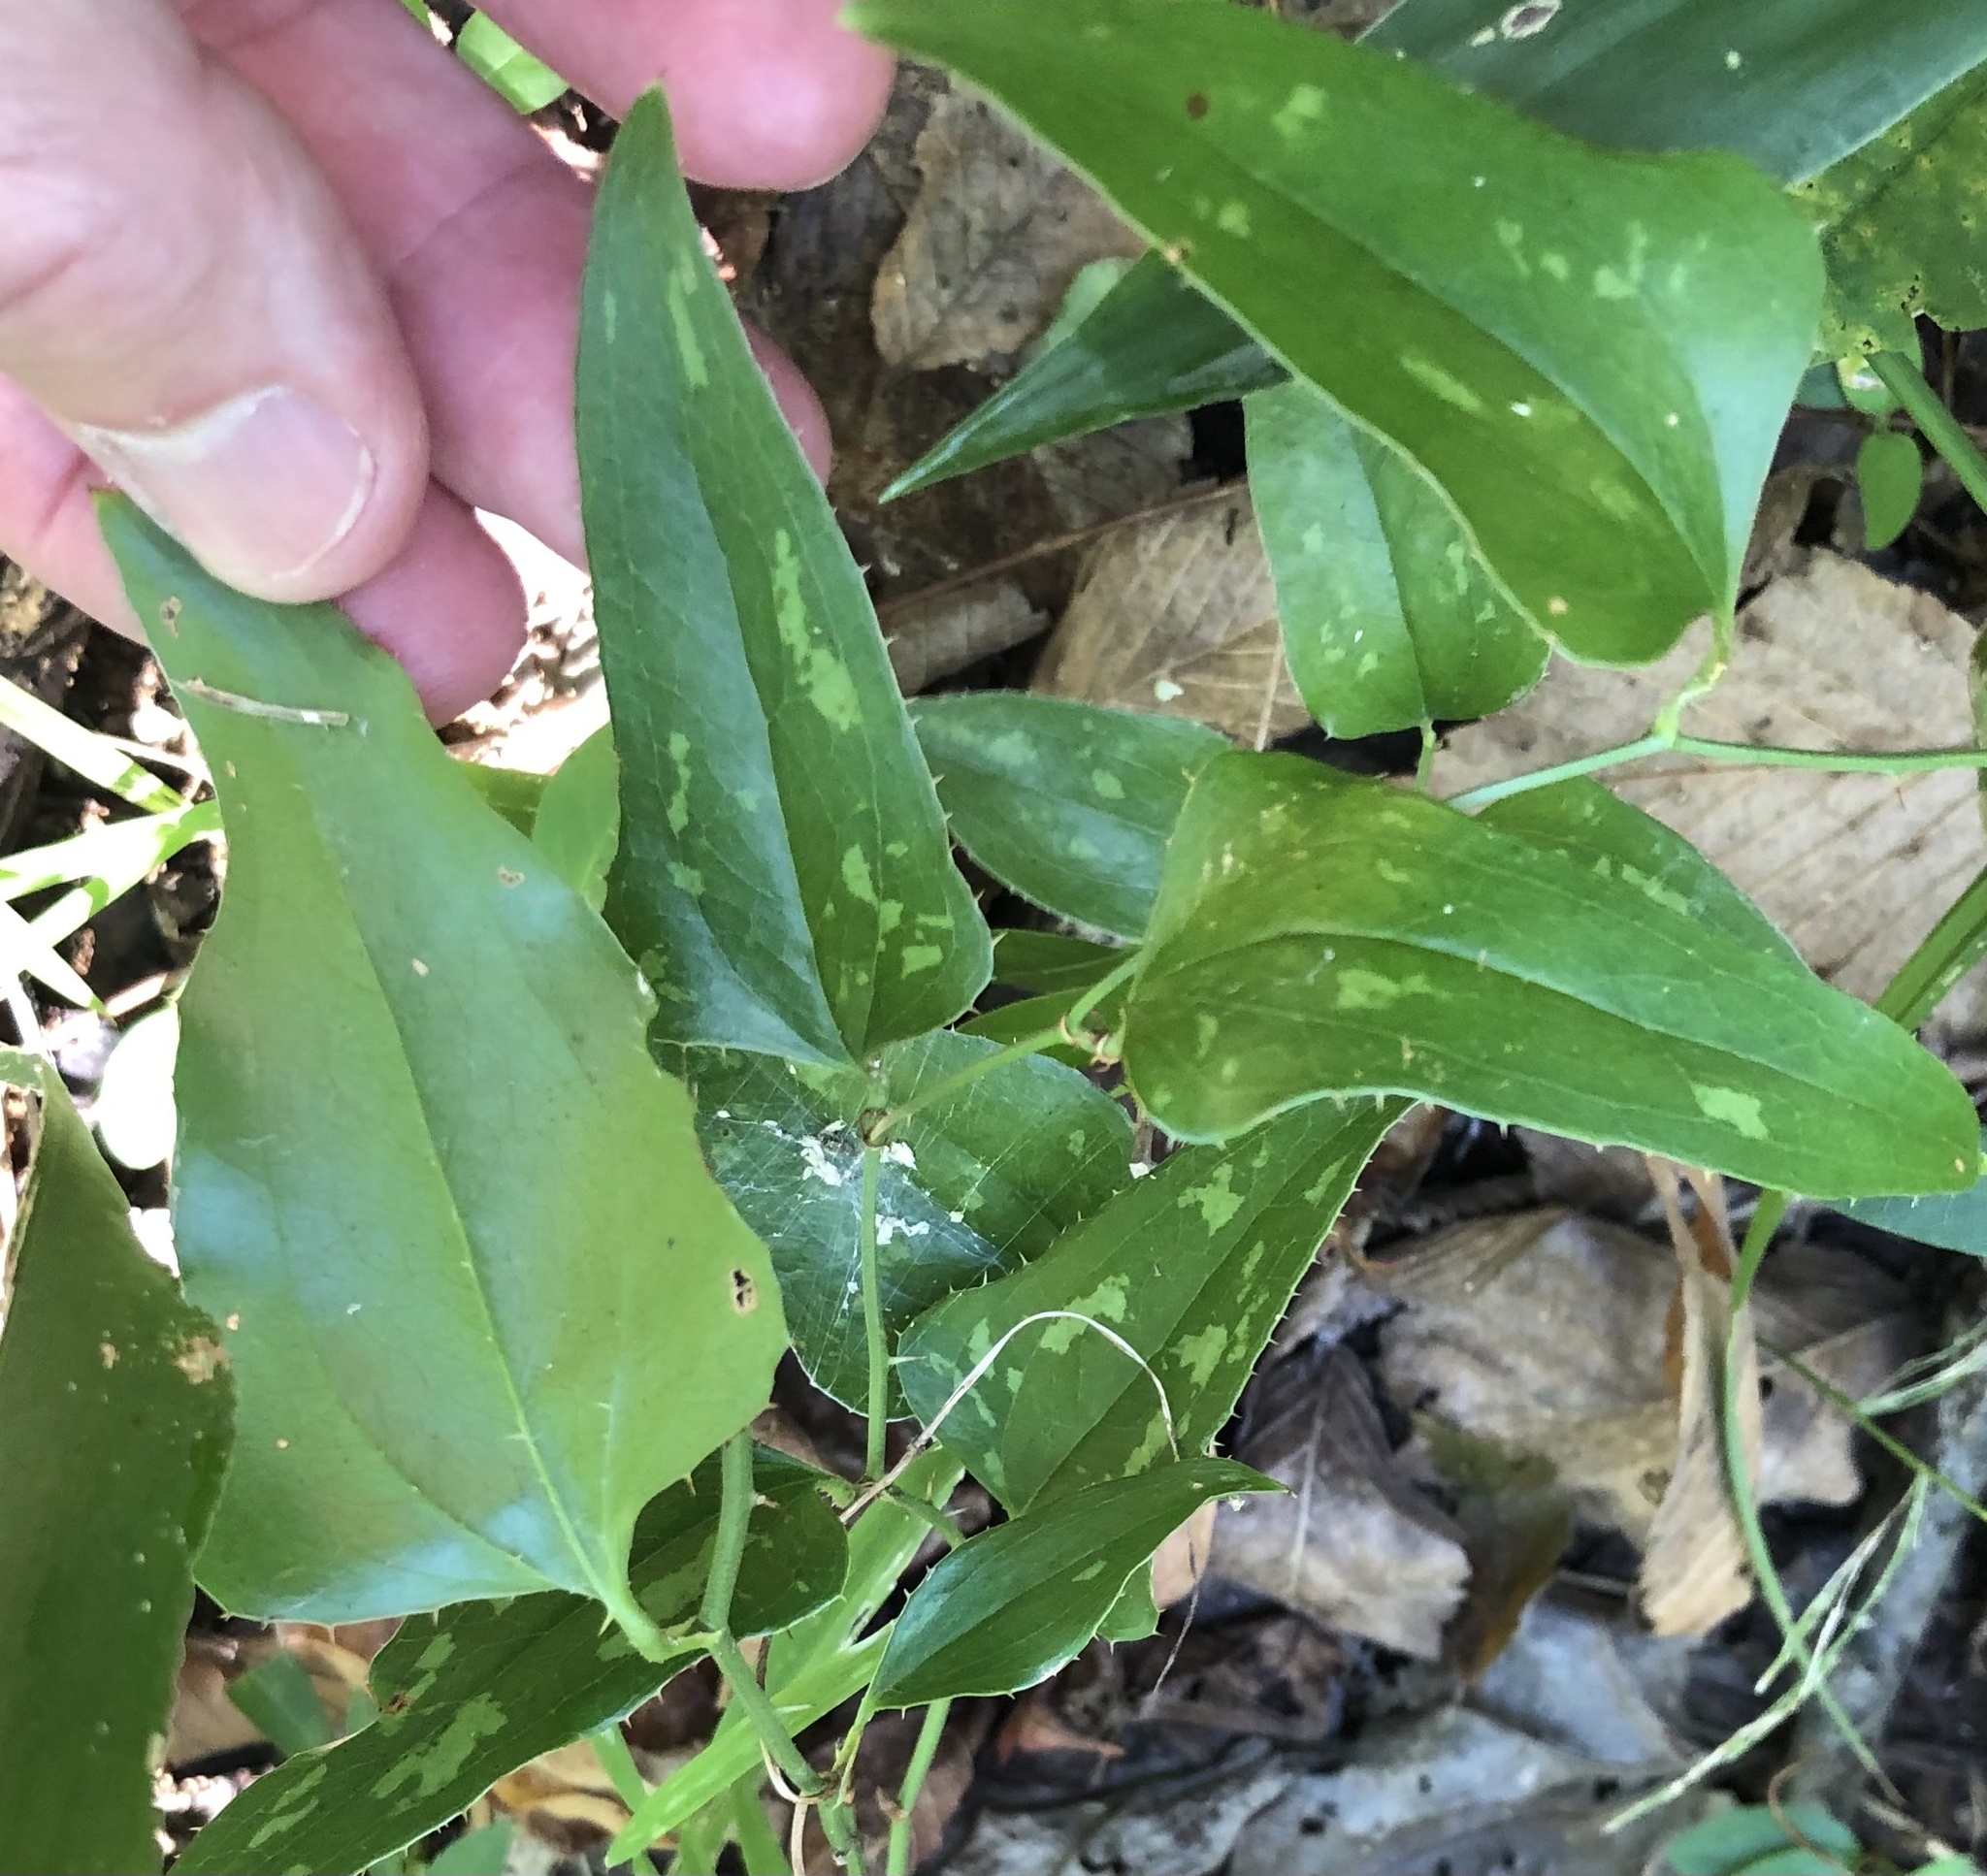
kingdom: Plantae
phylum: Tracheophyta
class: Liliopsida
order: Liliales
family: Smilacaceae
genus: Smilax
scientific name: Smilax bona-nox
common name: Catbrier
